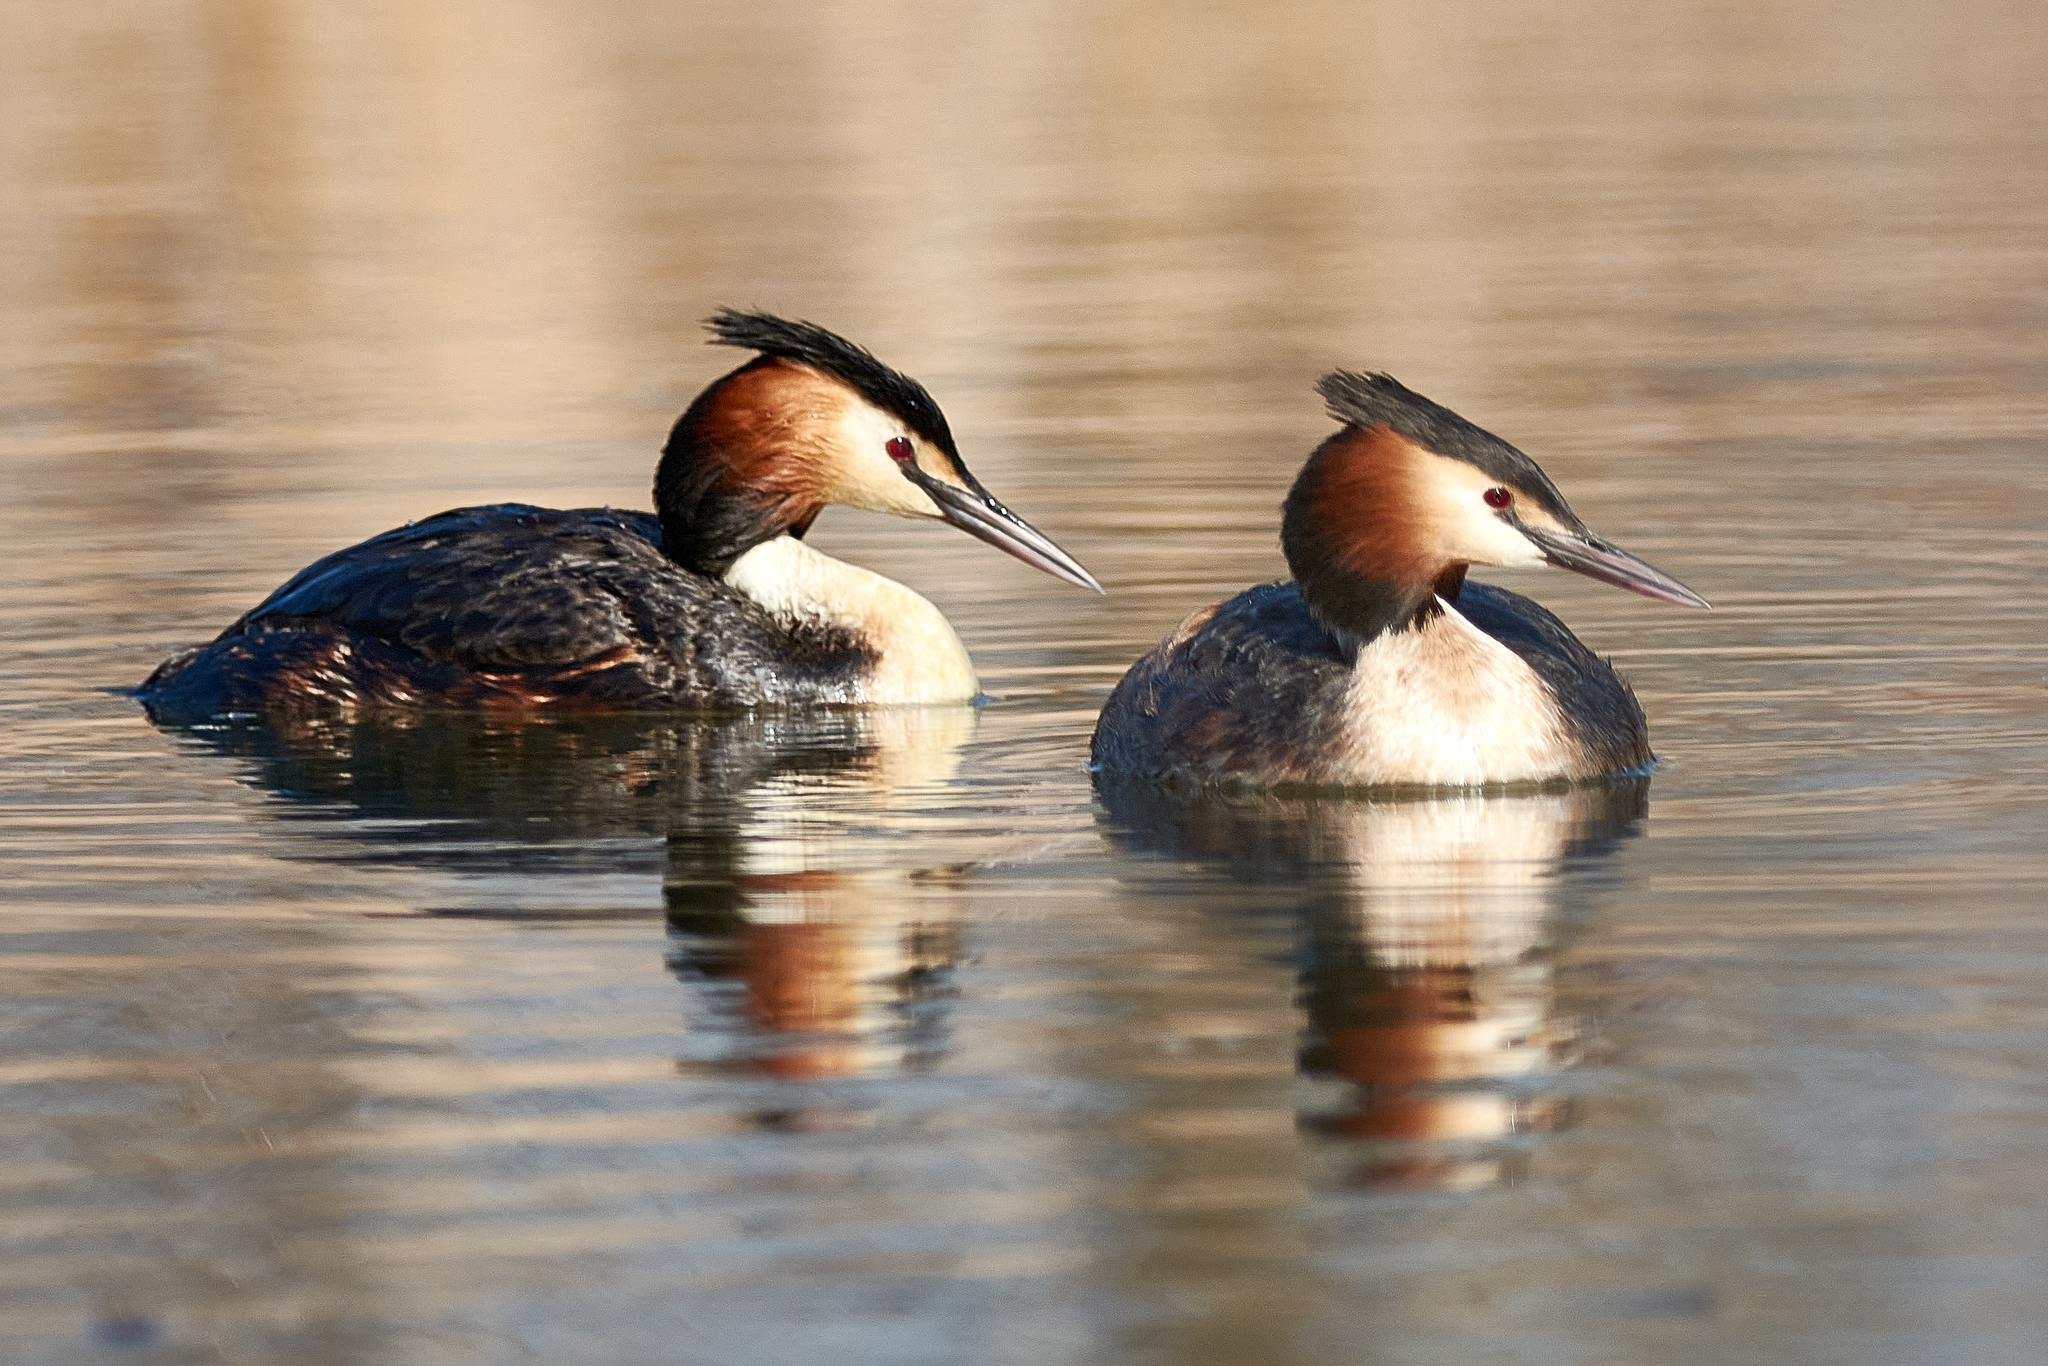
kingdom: Animalia
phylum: Chordata
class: Aves
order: Podicipediformes
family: Podicipedidae
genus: Podiceps
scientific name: Podiceps cristatus
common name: Great crested grebe
